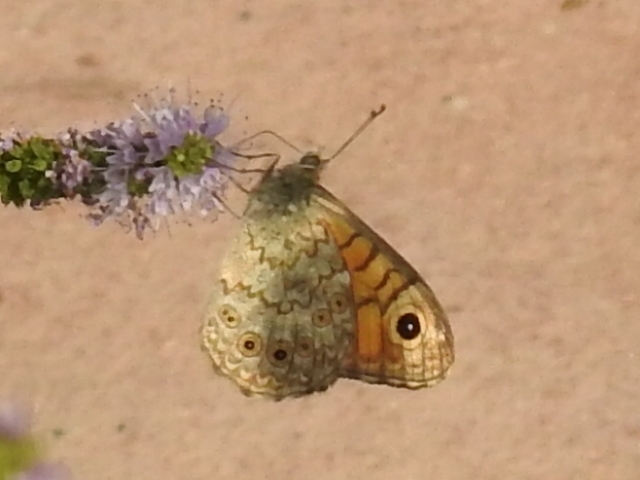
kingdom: Animalia
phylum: Arthropoda
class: Insecta
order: Lepidoptera
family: Nymphalidae
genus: Pararge
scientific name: Pararge Lasiommata megera
